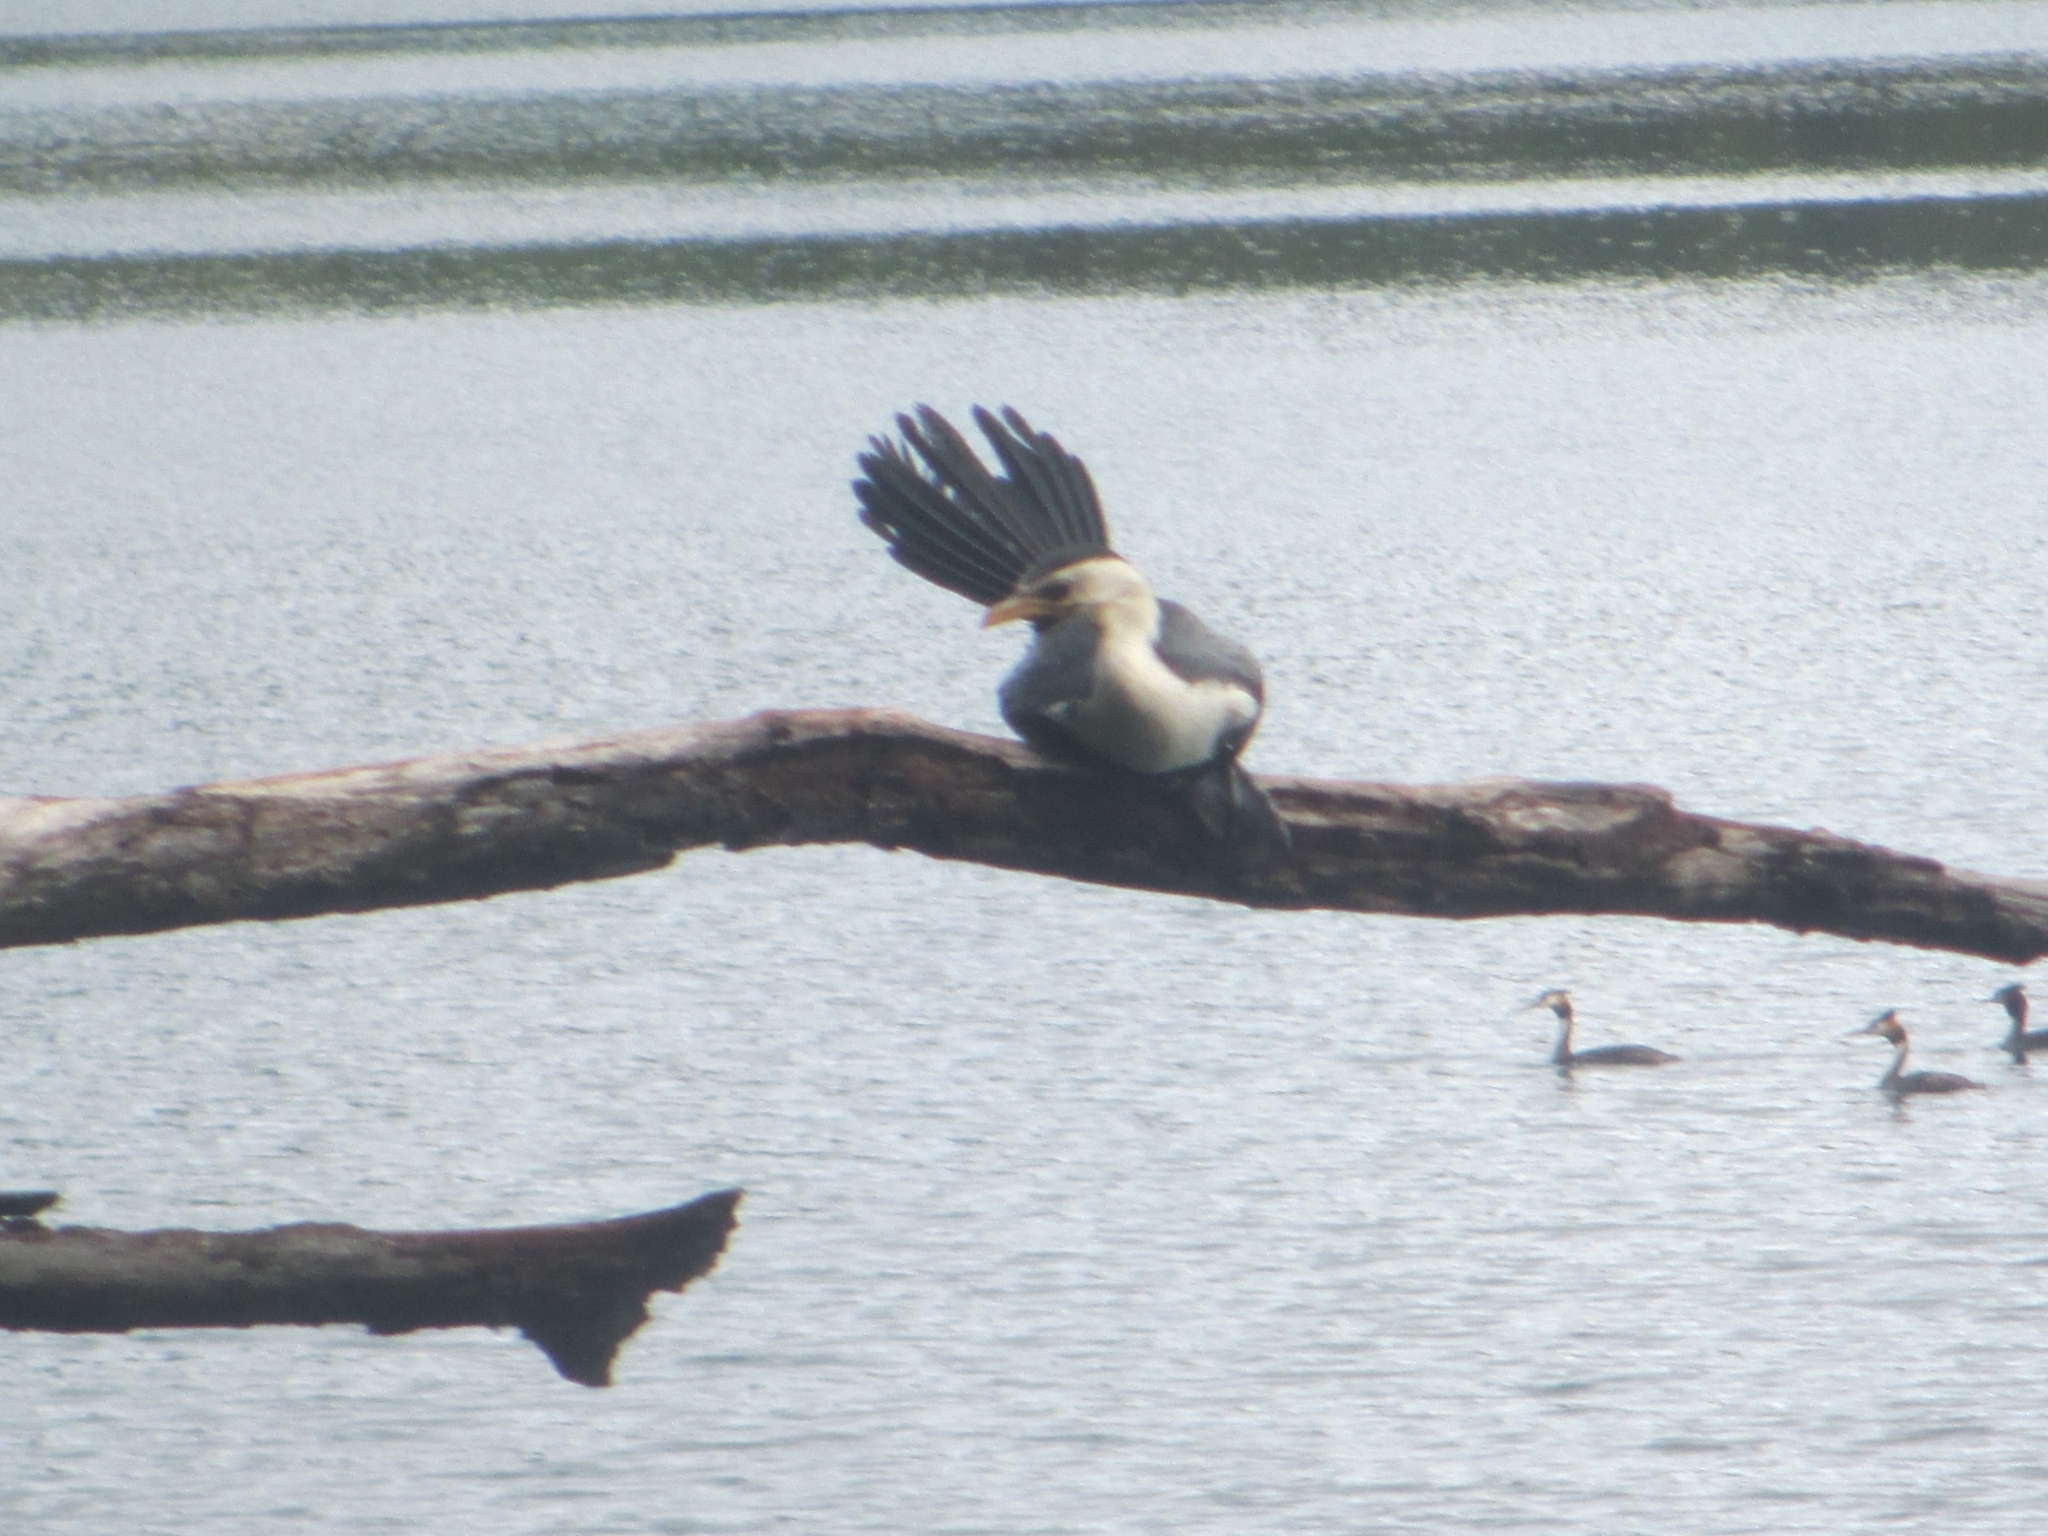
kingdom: Animalia
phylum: Chordata
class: Aves
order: Suliformes
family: Phalacrocoracidae
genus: Microcarbo
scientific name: Microcarbo melanoleucos
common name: Little pied cormorant
